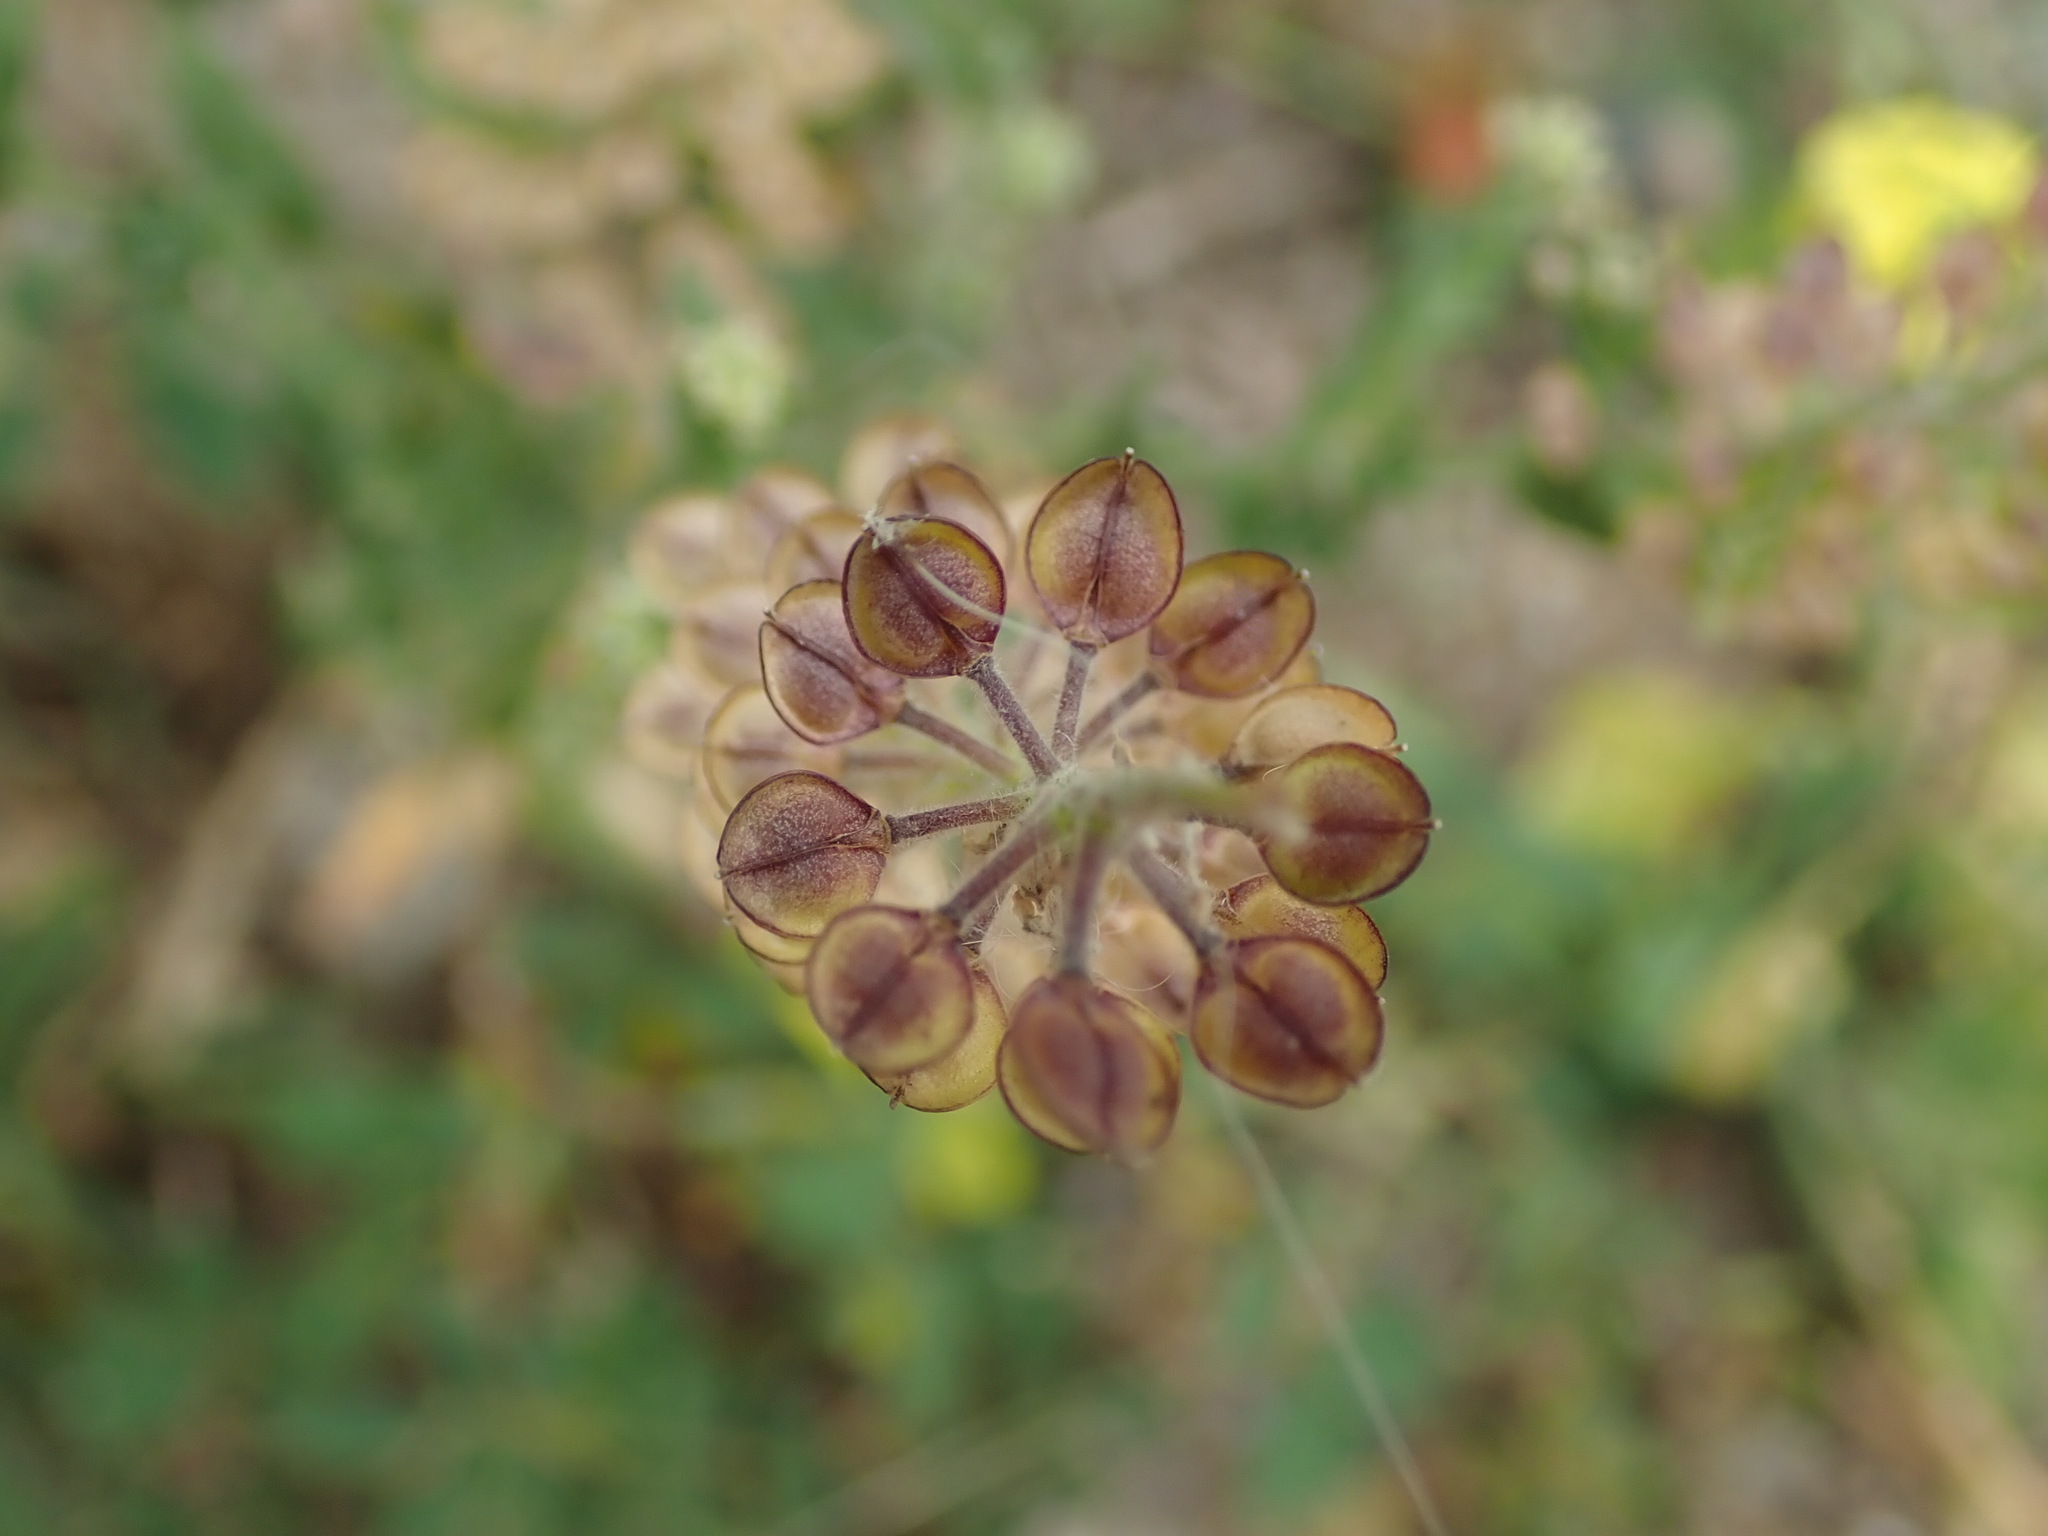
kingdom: Plantae
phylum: Tracheophyta
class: Magnoliopsida
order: Brassicales
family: Brassicaceae
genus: Lepidium
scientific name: Lepidium campestre
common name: Field pepperwort
